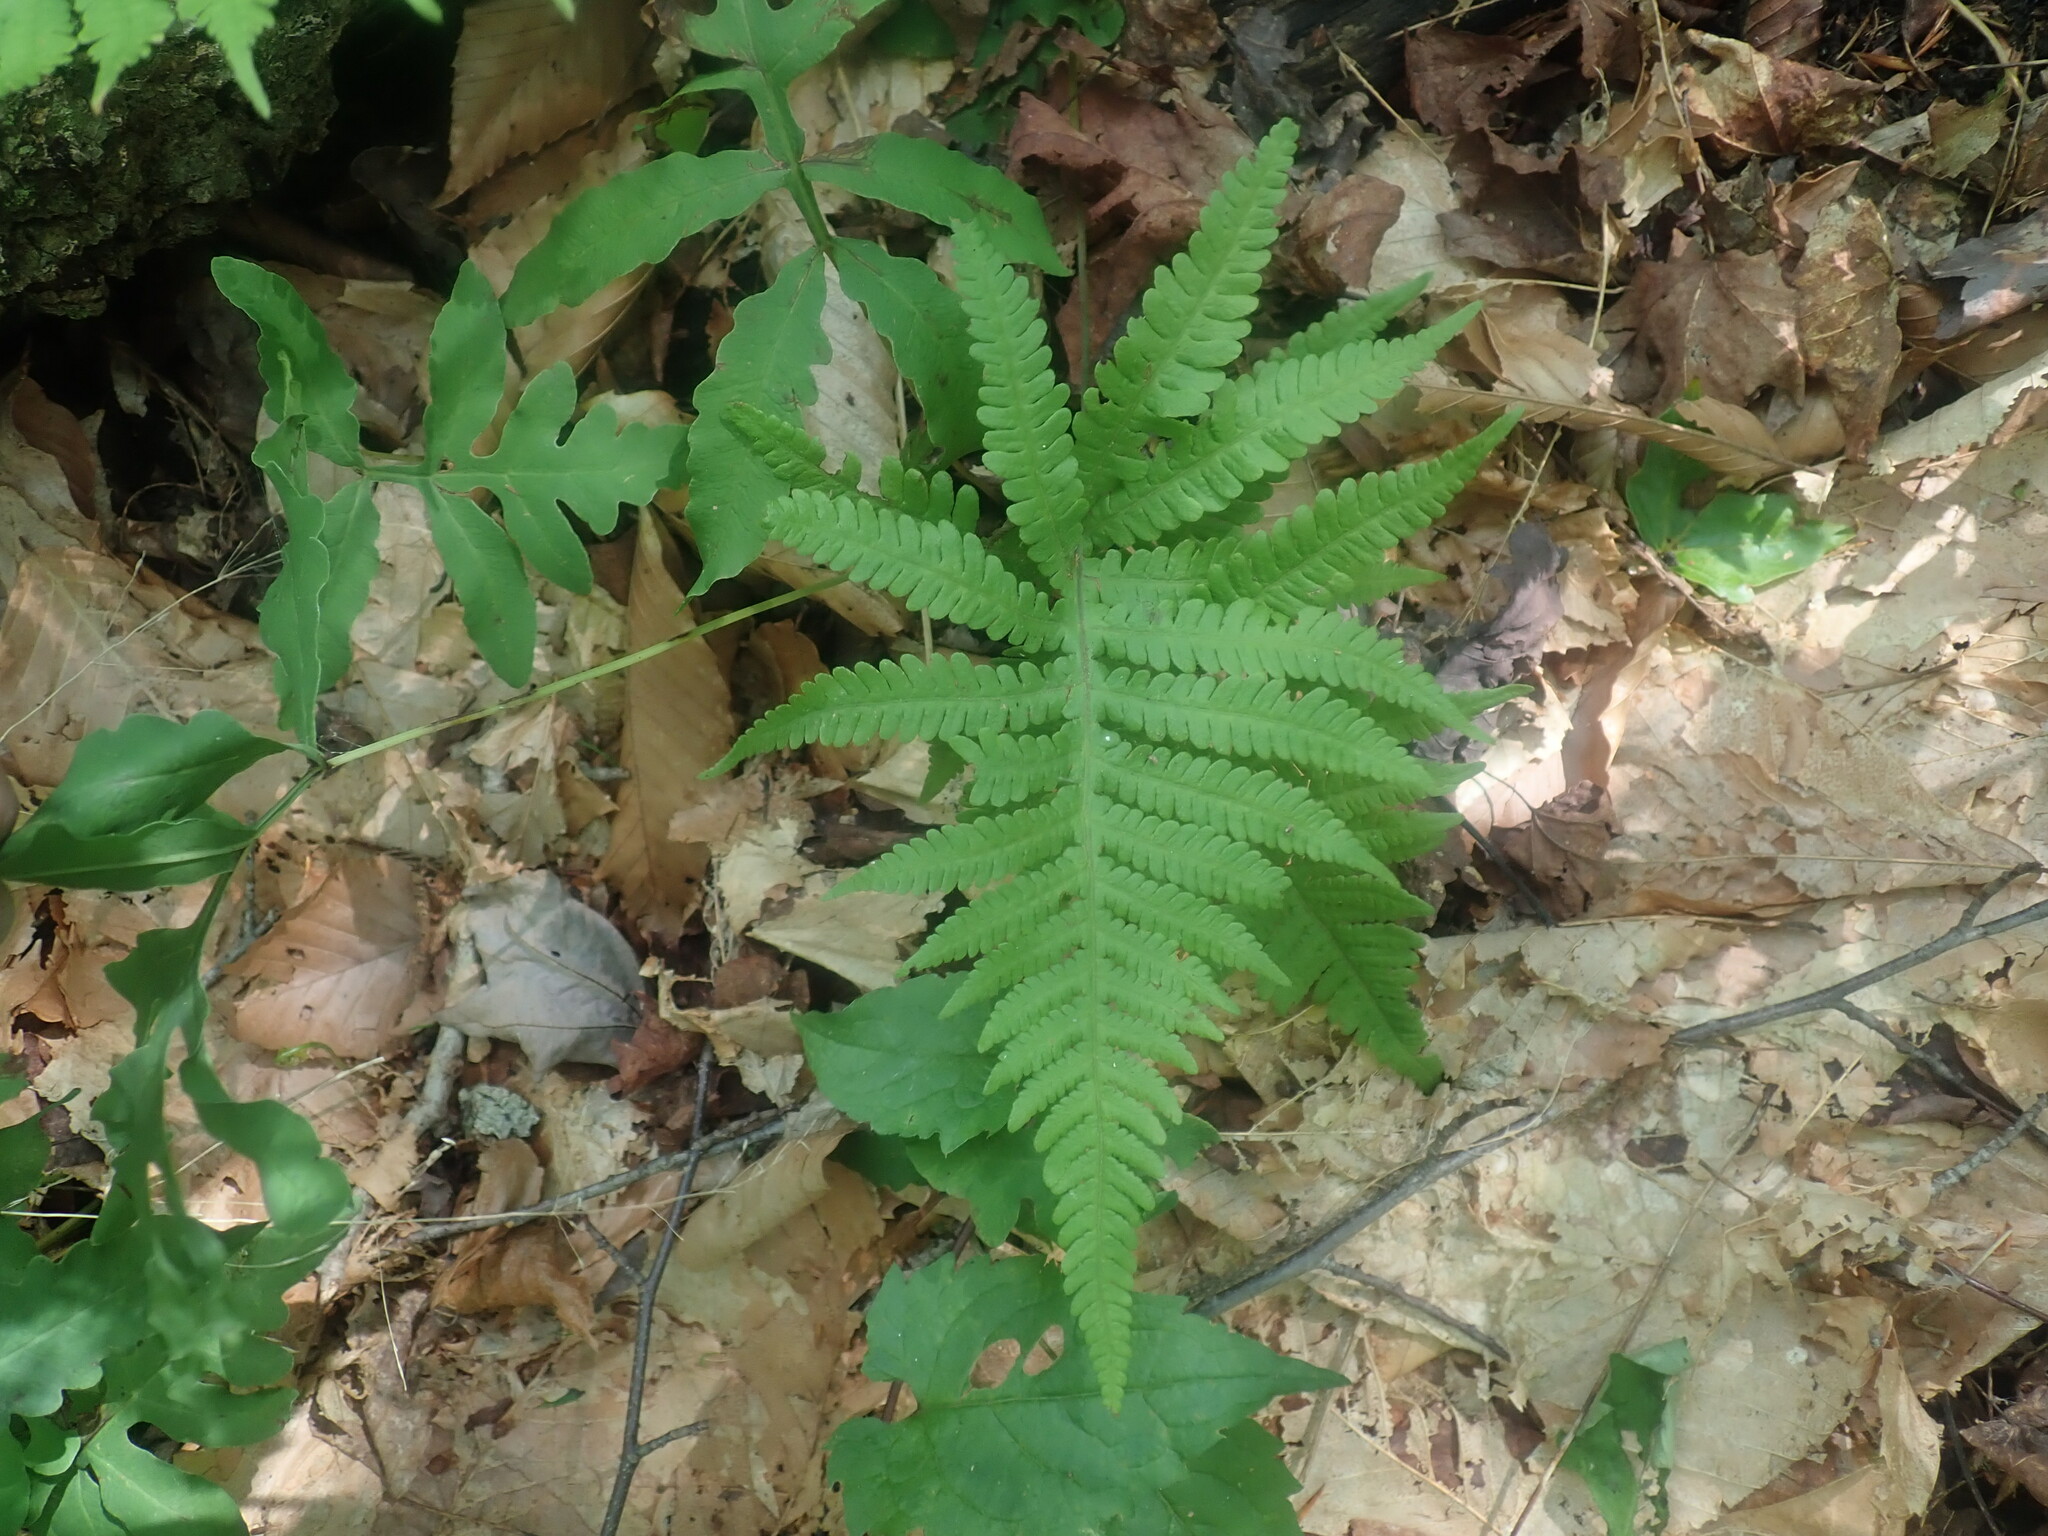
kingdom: Plantae
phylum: Tracheophyta
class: Polypodiopsida
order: Polypodiales
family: Thelypteridaceae
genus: Phegopteris
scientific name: Phegopteris connectilis
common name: Beech fern
